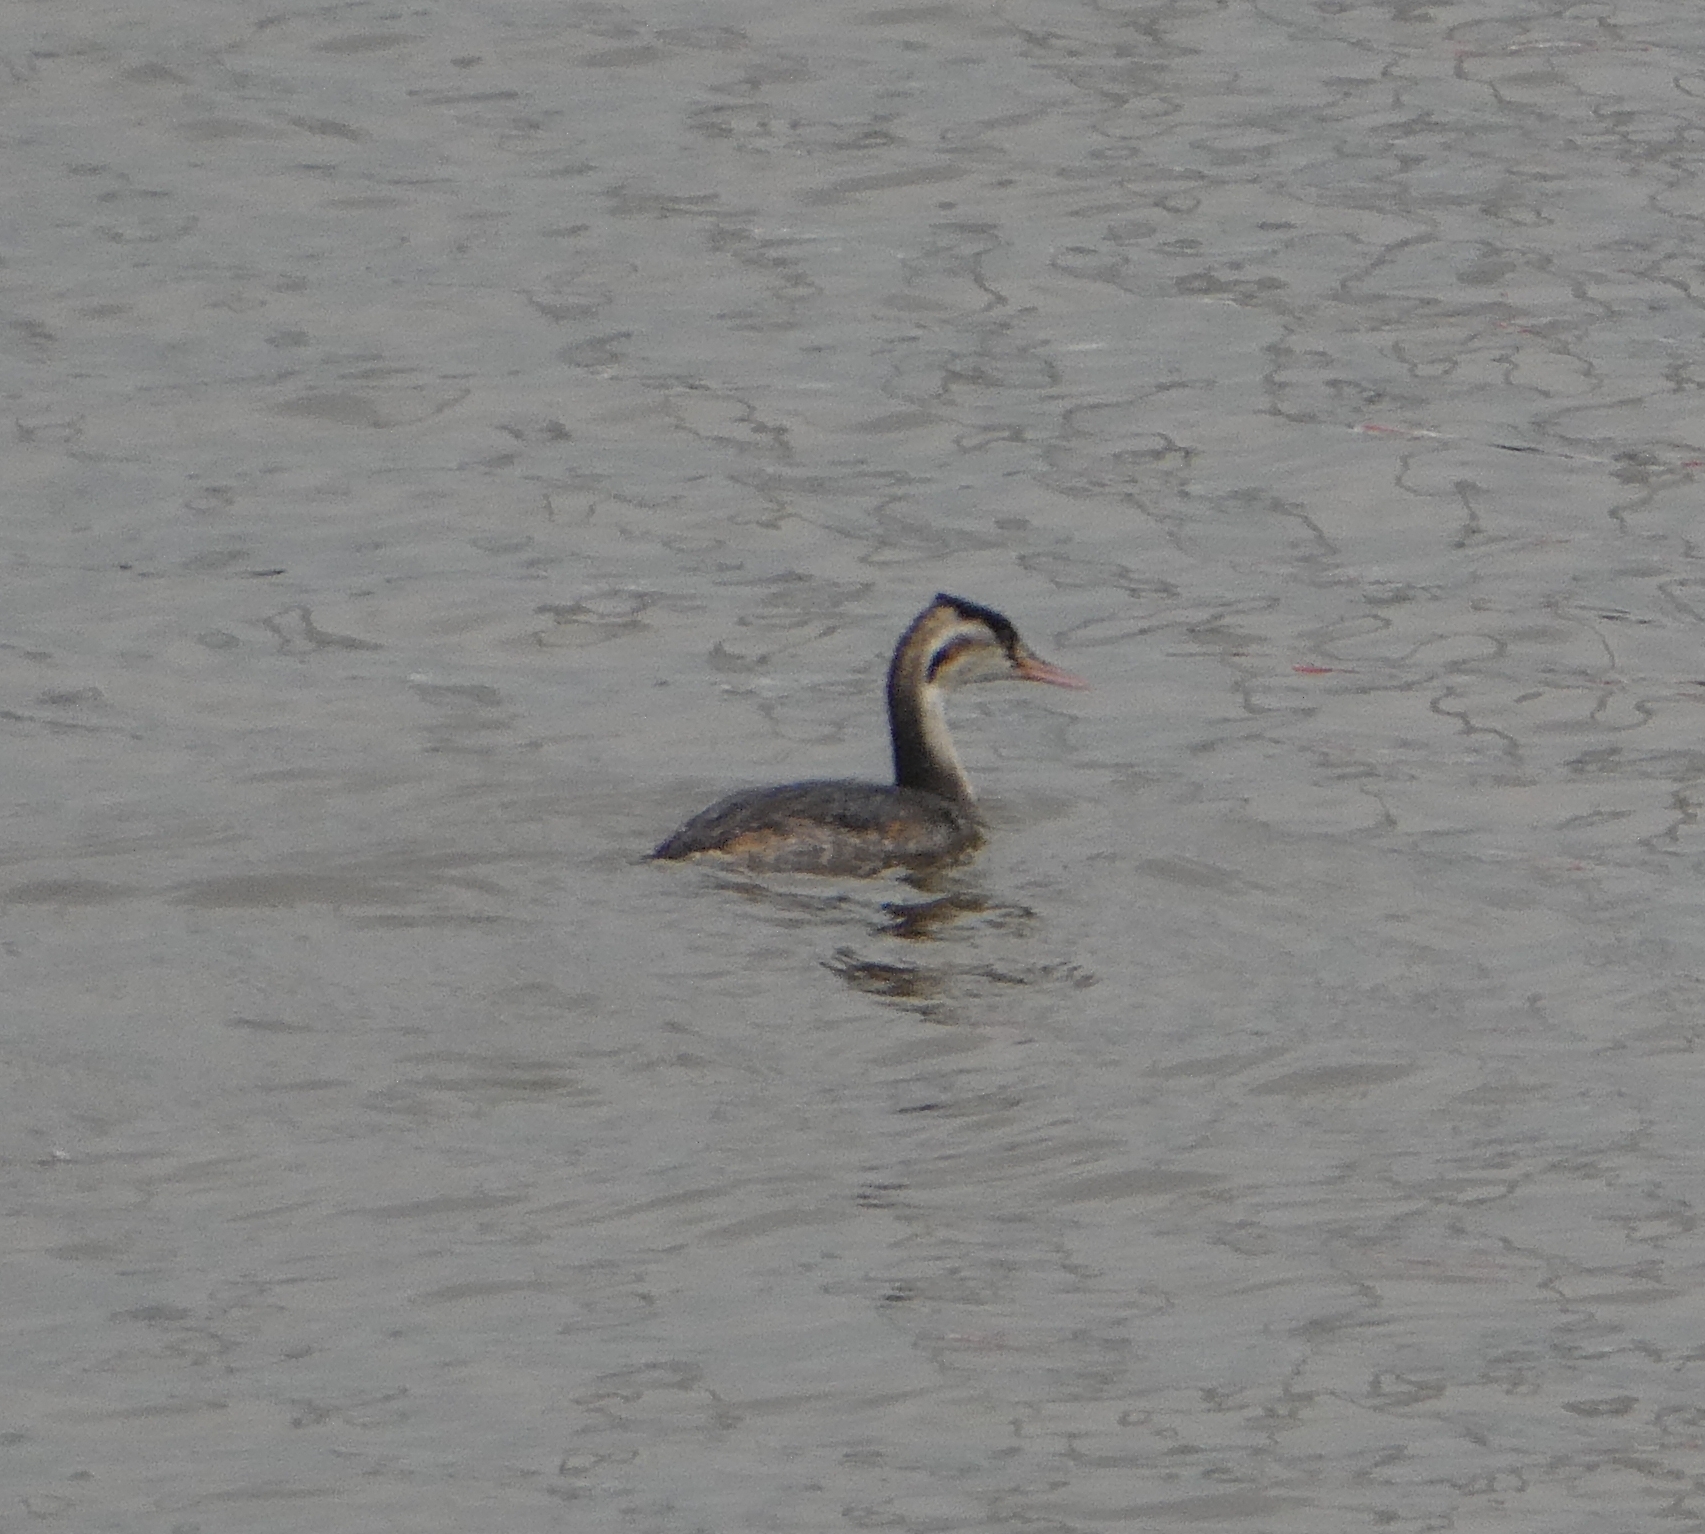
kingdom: Animalia
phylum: Chordata
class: Aves
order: Podicipediformes
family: Podicipedidae
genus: Podiceps
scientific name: Podiceps cristatus
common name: Great crested grebe
